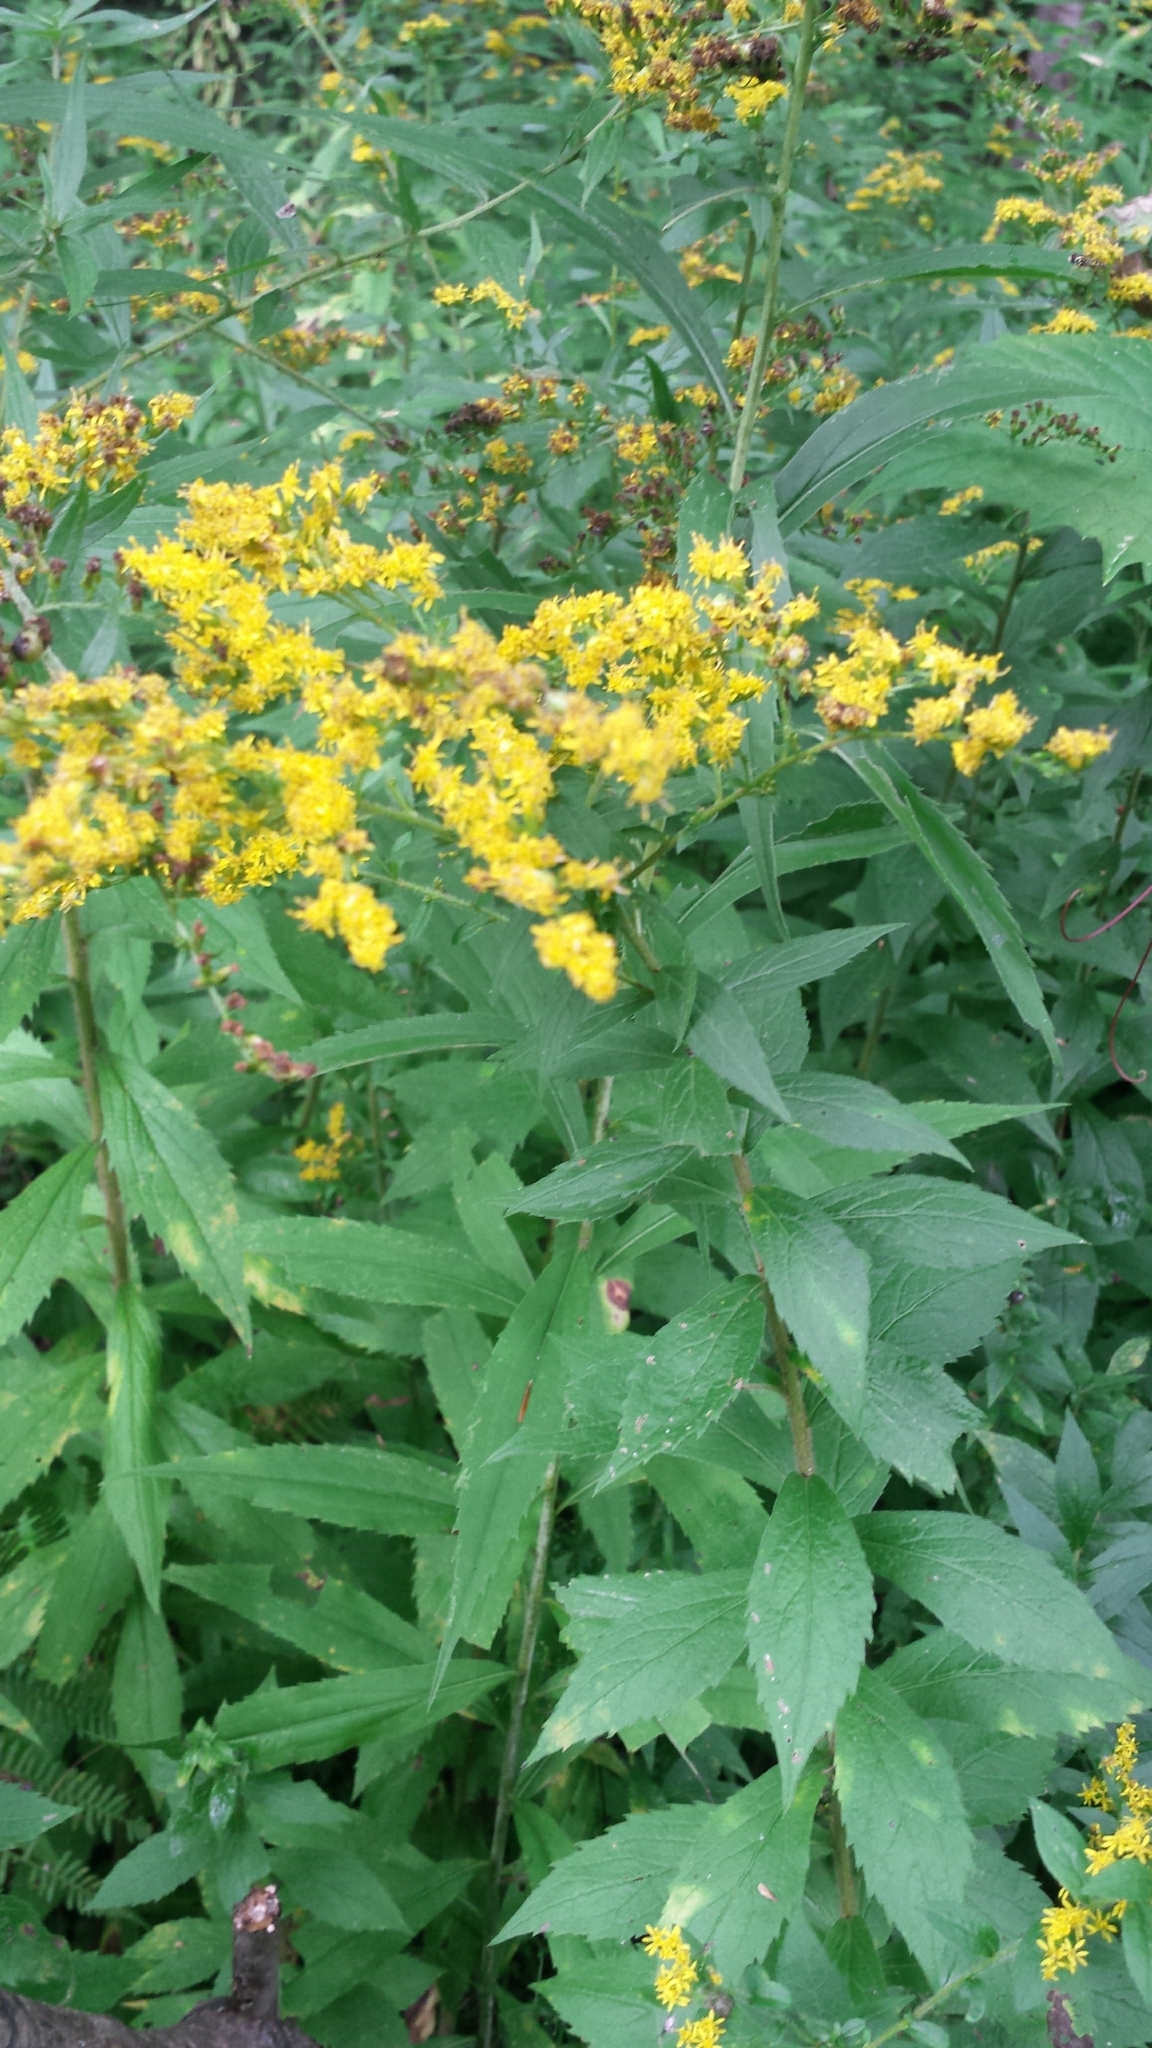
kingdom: Plantae
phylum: Tracheophyta
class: Magnoliopsida
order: Asterales
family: Asteraceae
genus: Solidago
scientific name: Solidago rugosa
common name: Rough-stemmed goldenrod
